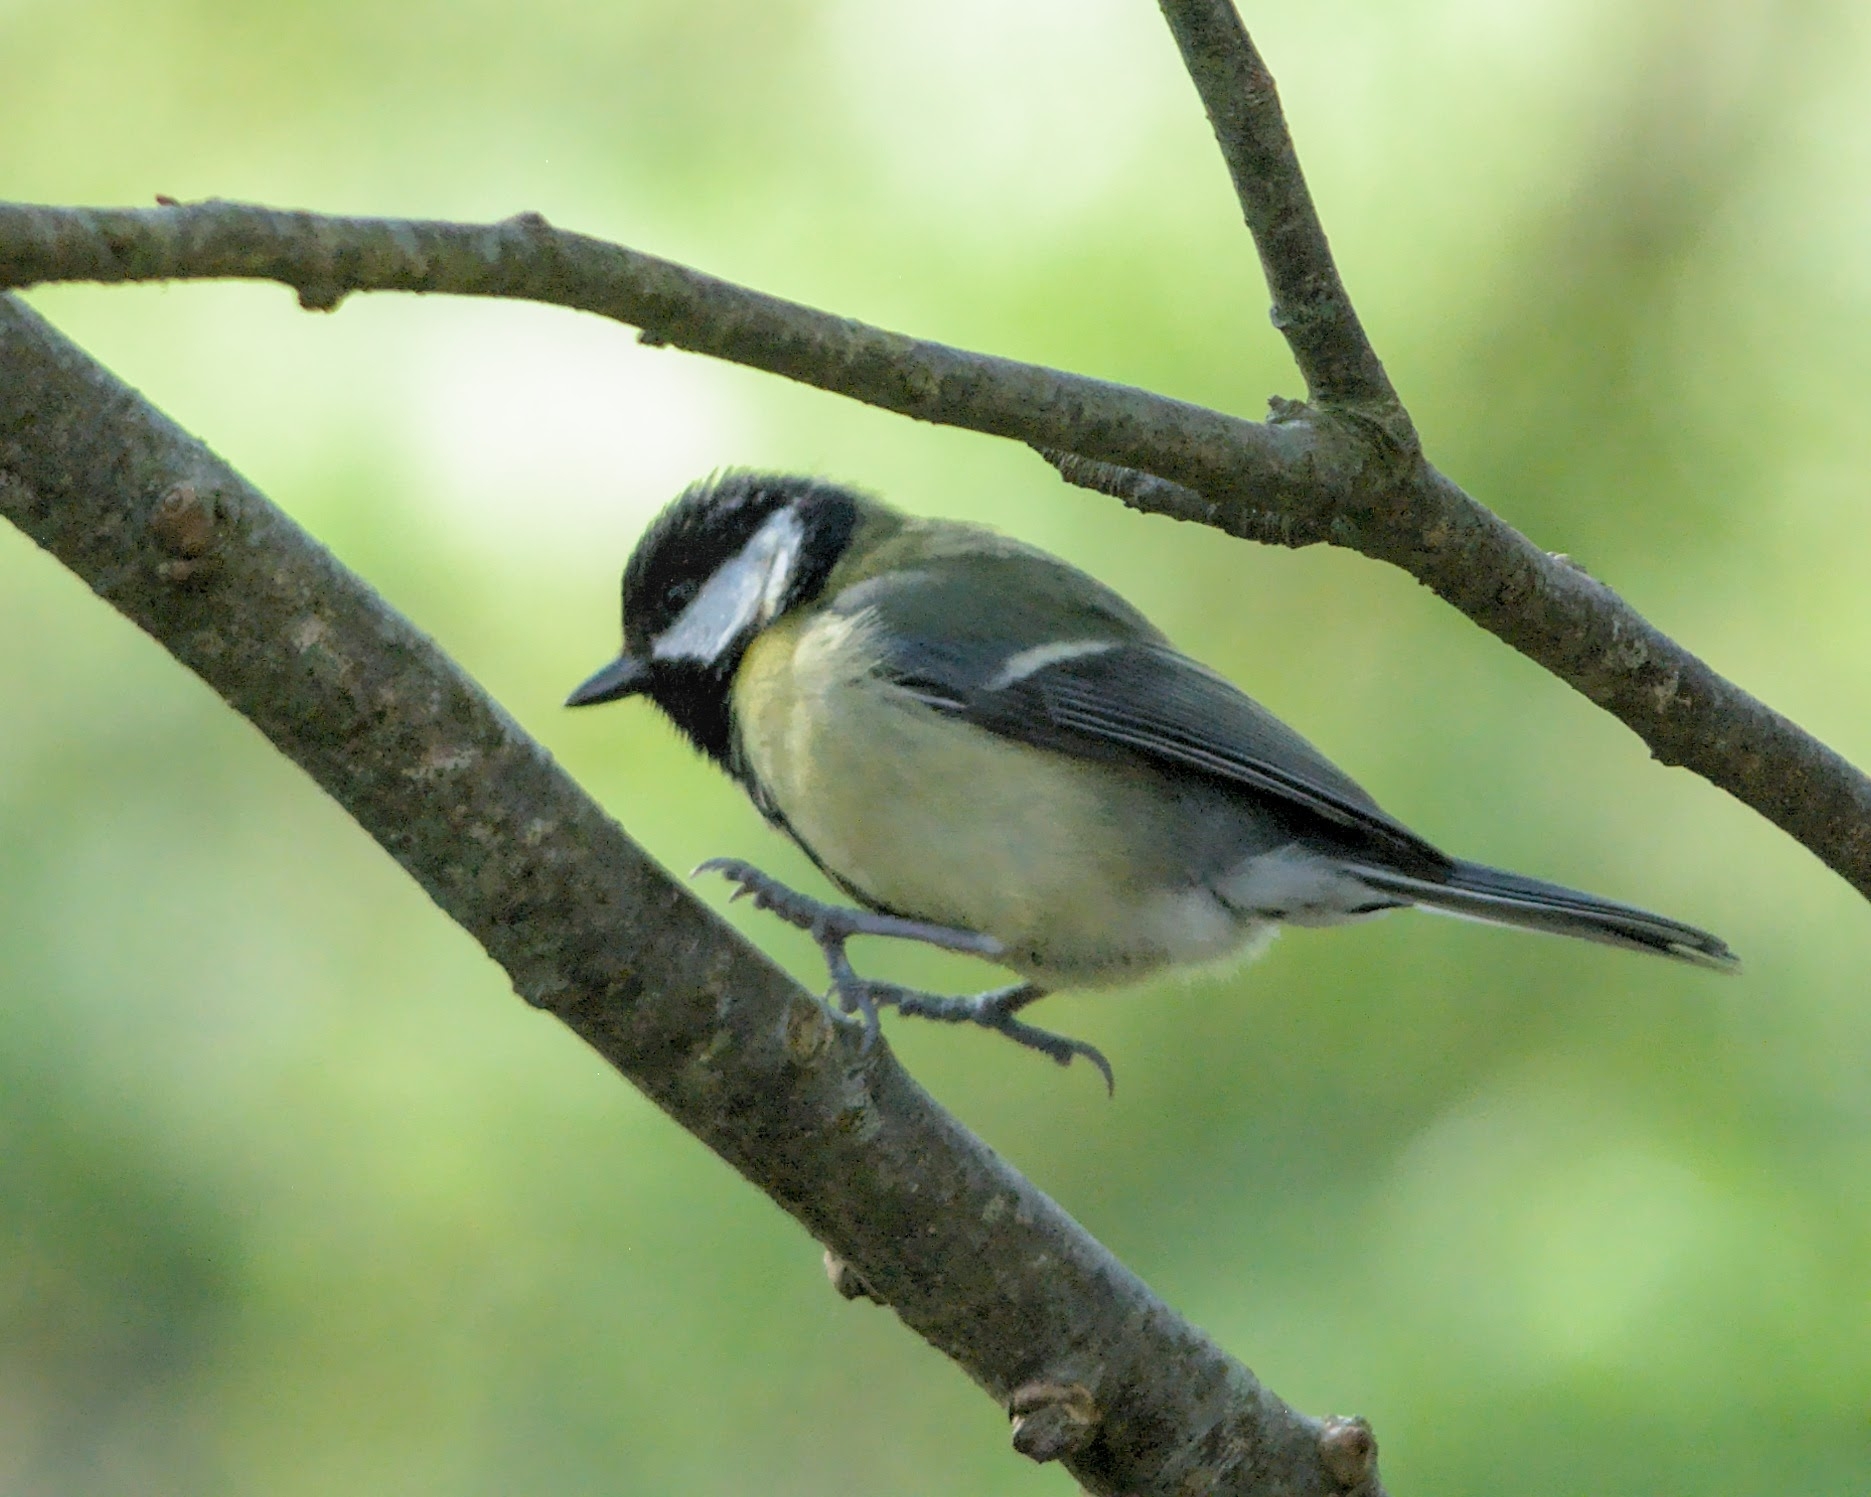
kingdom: Animalia
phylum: Chordata
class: Aves
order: Passeriformes
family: Paridae
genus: Parus
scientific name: Parus major
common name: Great tit
